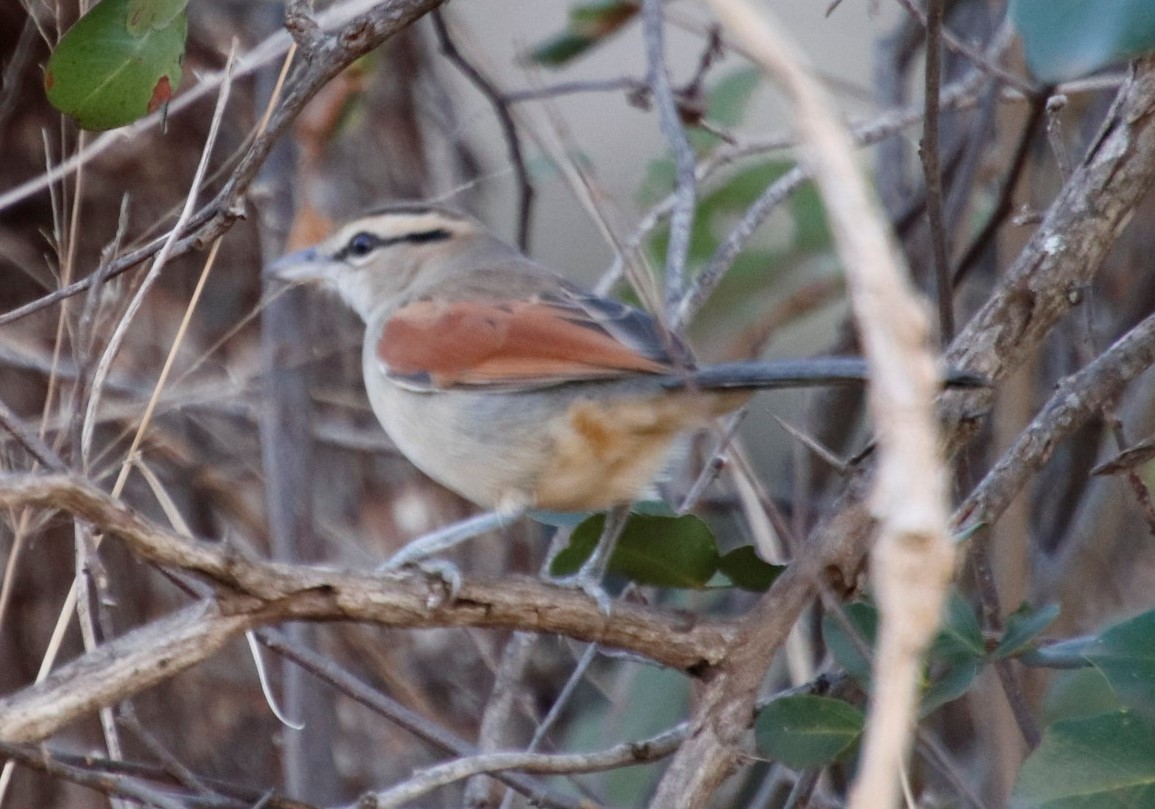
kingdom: Animalia
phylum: Chordata
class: Aves
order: Passeriformes
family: Malaconotidae
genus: Tchagra
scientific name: Tchagra australis
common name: Brown-crowned tchagra
